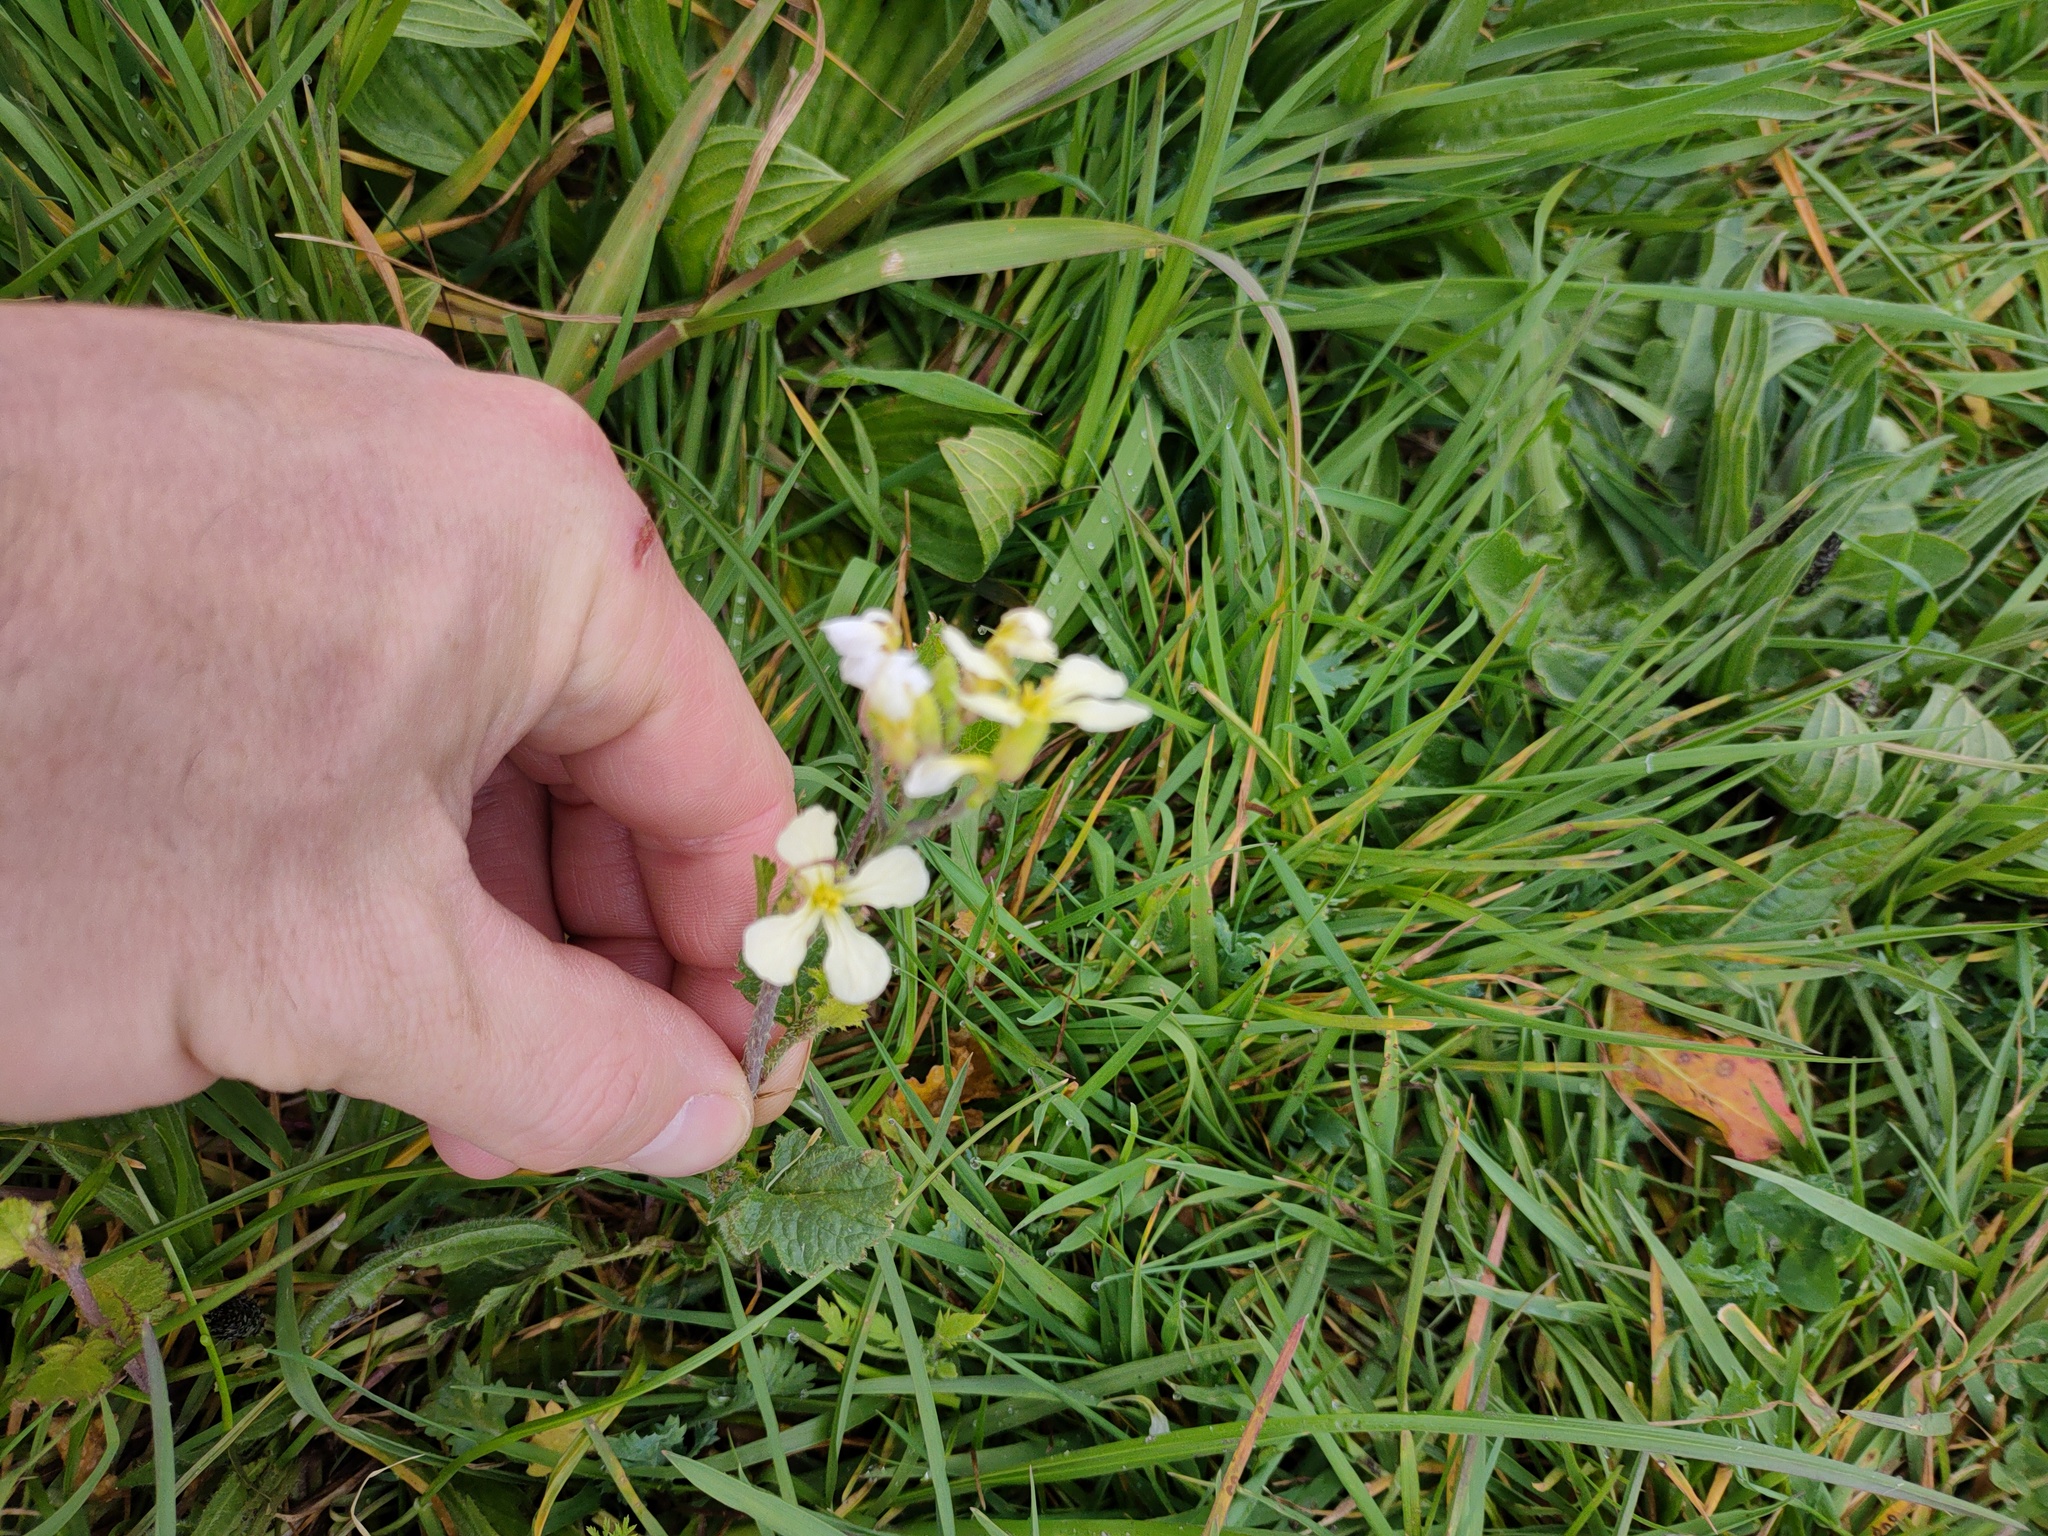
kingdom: Plantae
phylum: Tracheophyta
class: Magnoliopsida
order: Brassicales
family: Brassicaceae
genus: Raphanus
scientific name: Raphanus raphanistrum
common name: Wild radish
